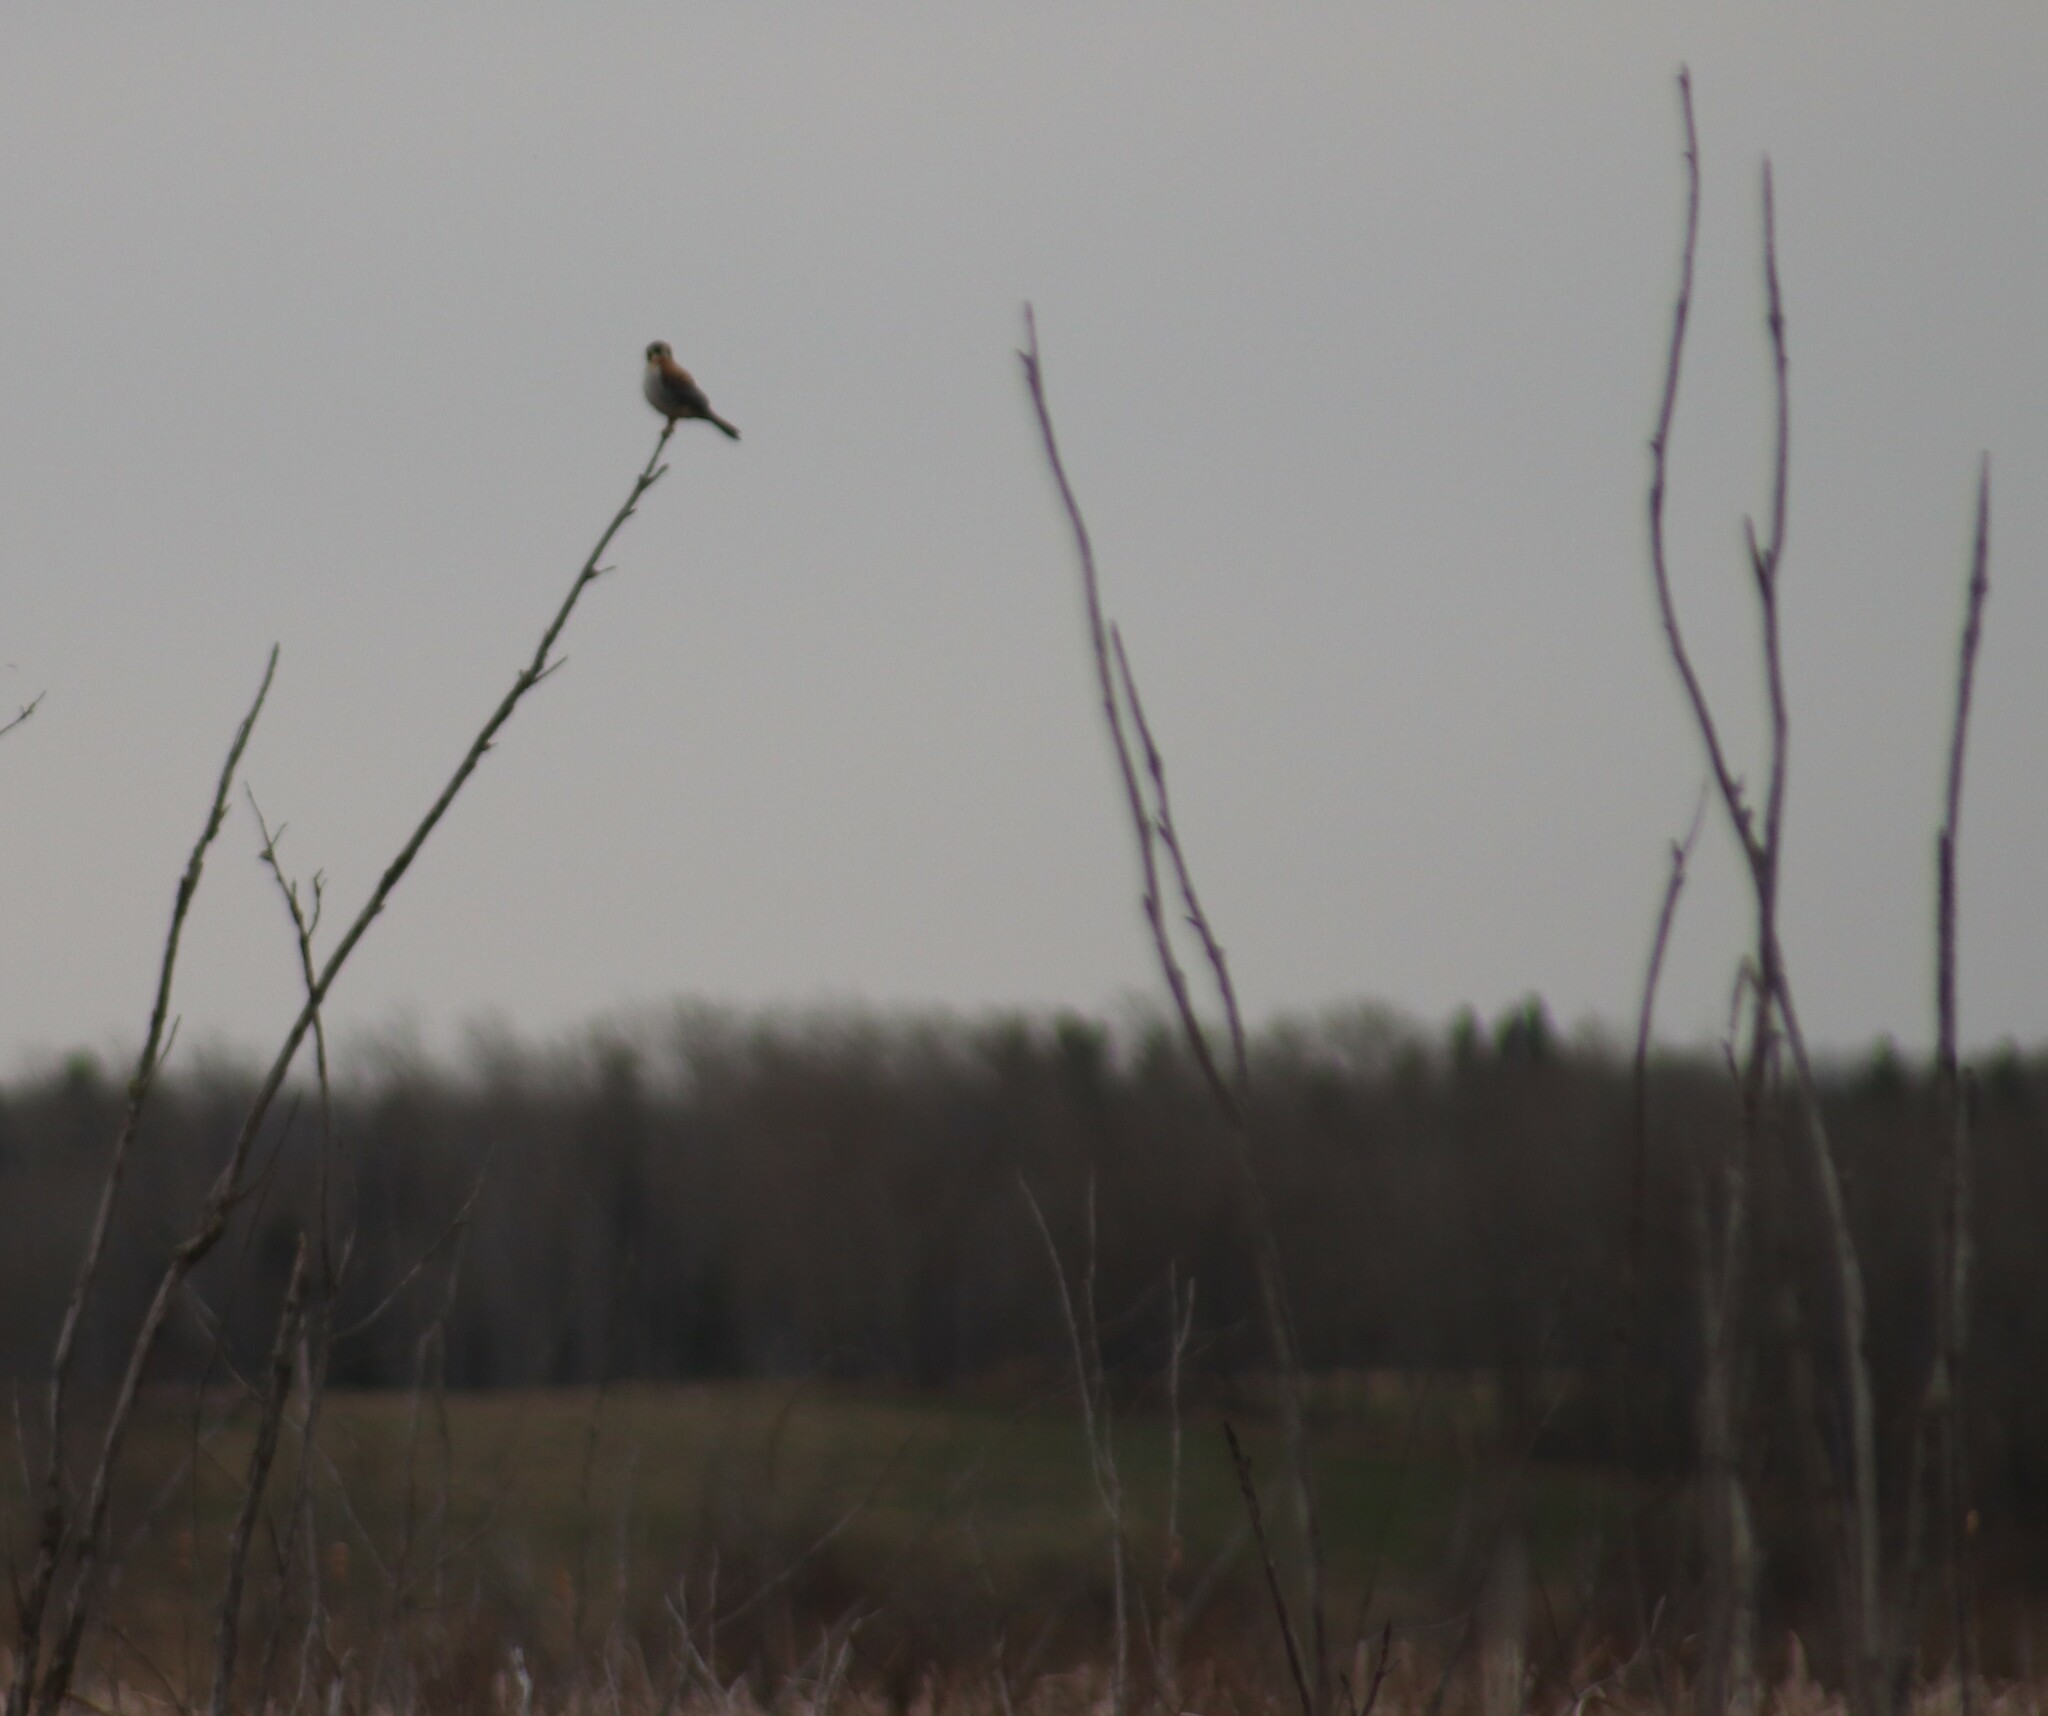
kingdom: Animalia
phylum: Chordata
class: Aves
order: Falconiformes
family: Falconidae
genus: Falco
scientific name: Falco sparverius
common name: American kestrel
